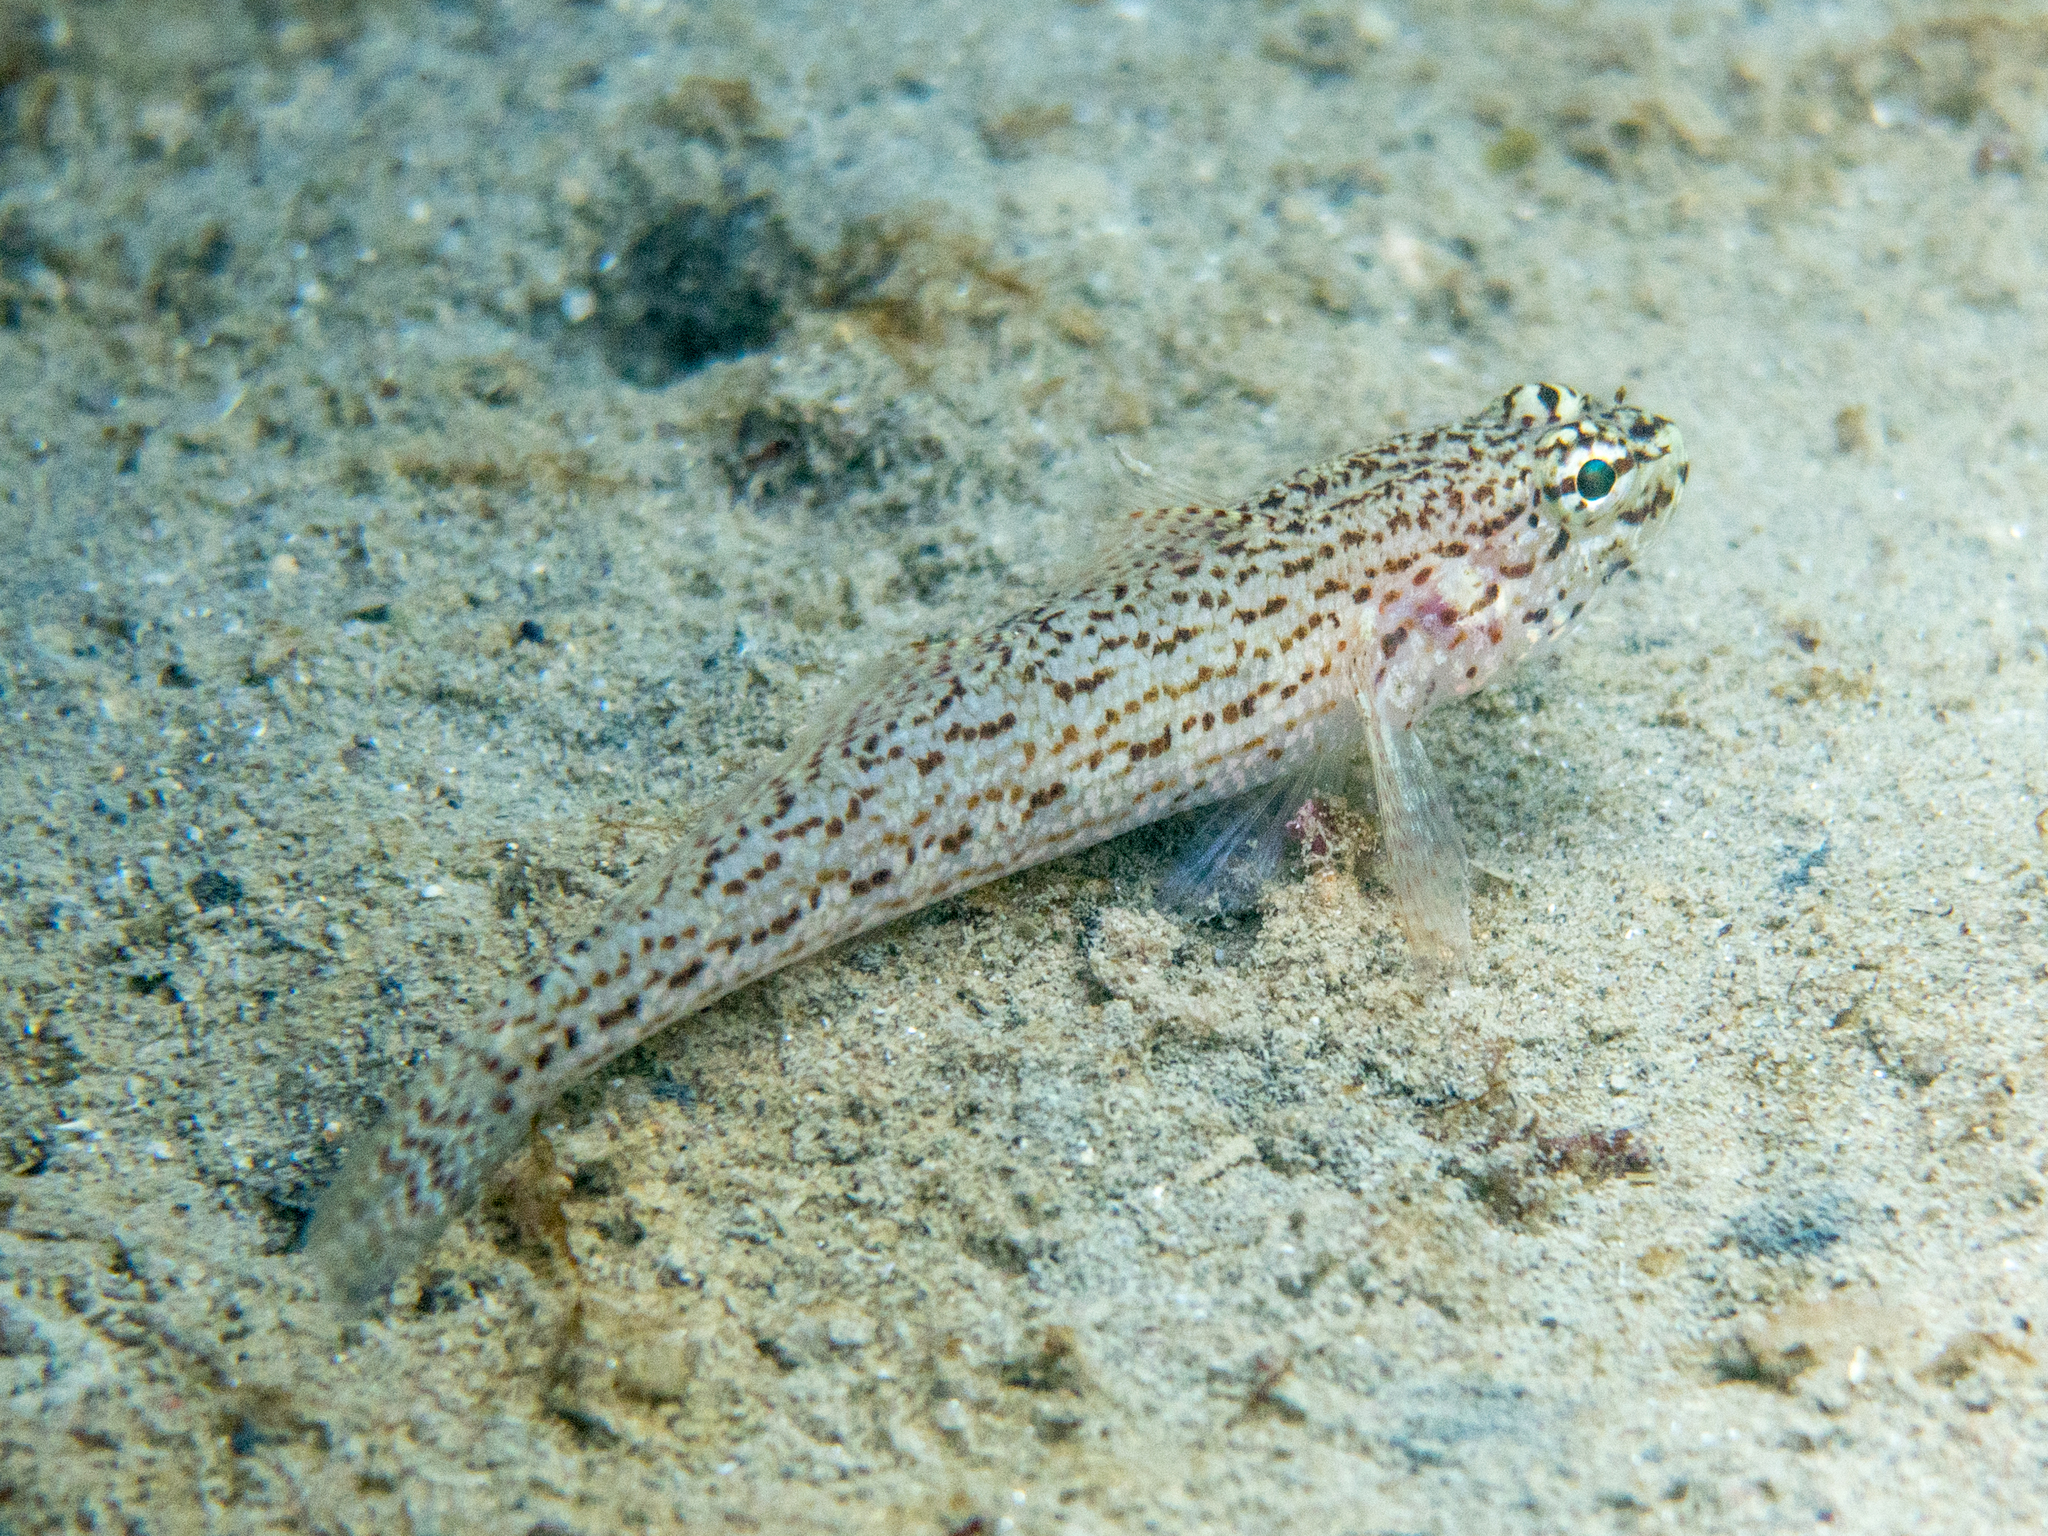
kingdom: Animalia
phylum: Chordata
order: Perciformes
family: Gobiidae
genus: Gobius
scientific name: Gobius fallax
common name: Sarato's goby
